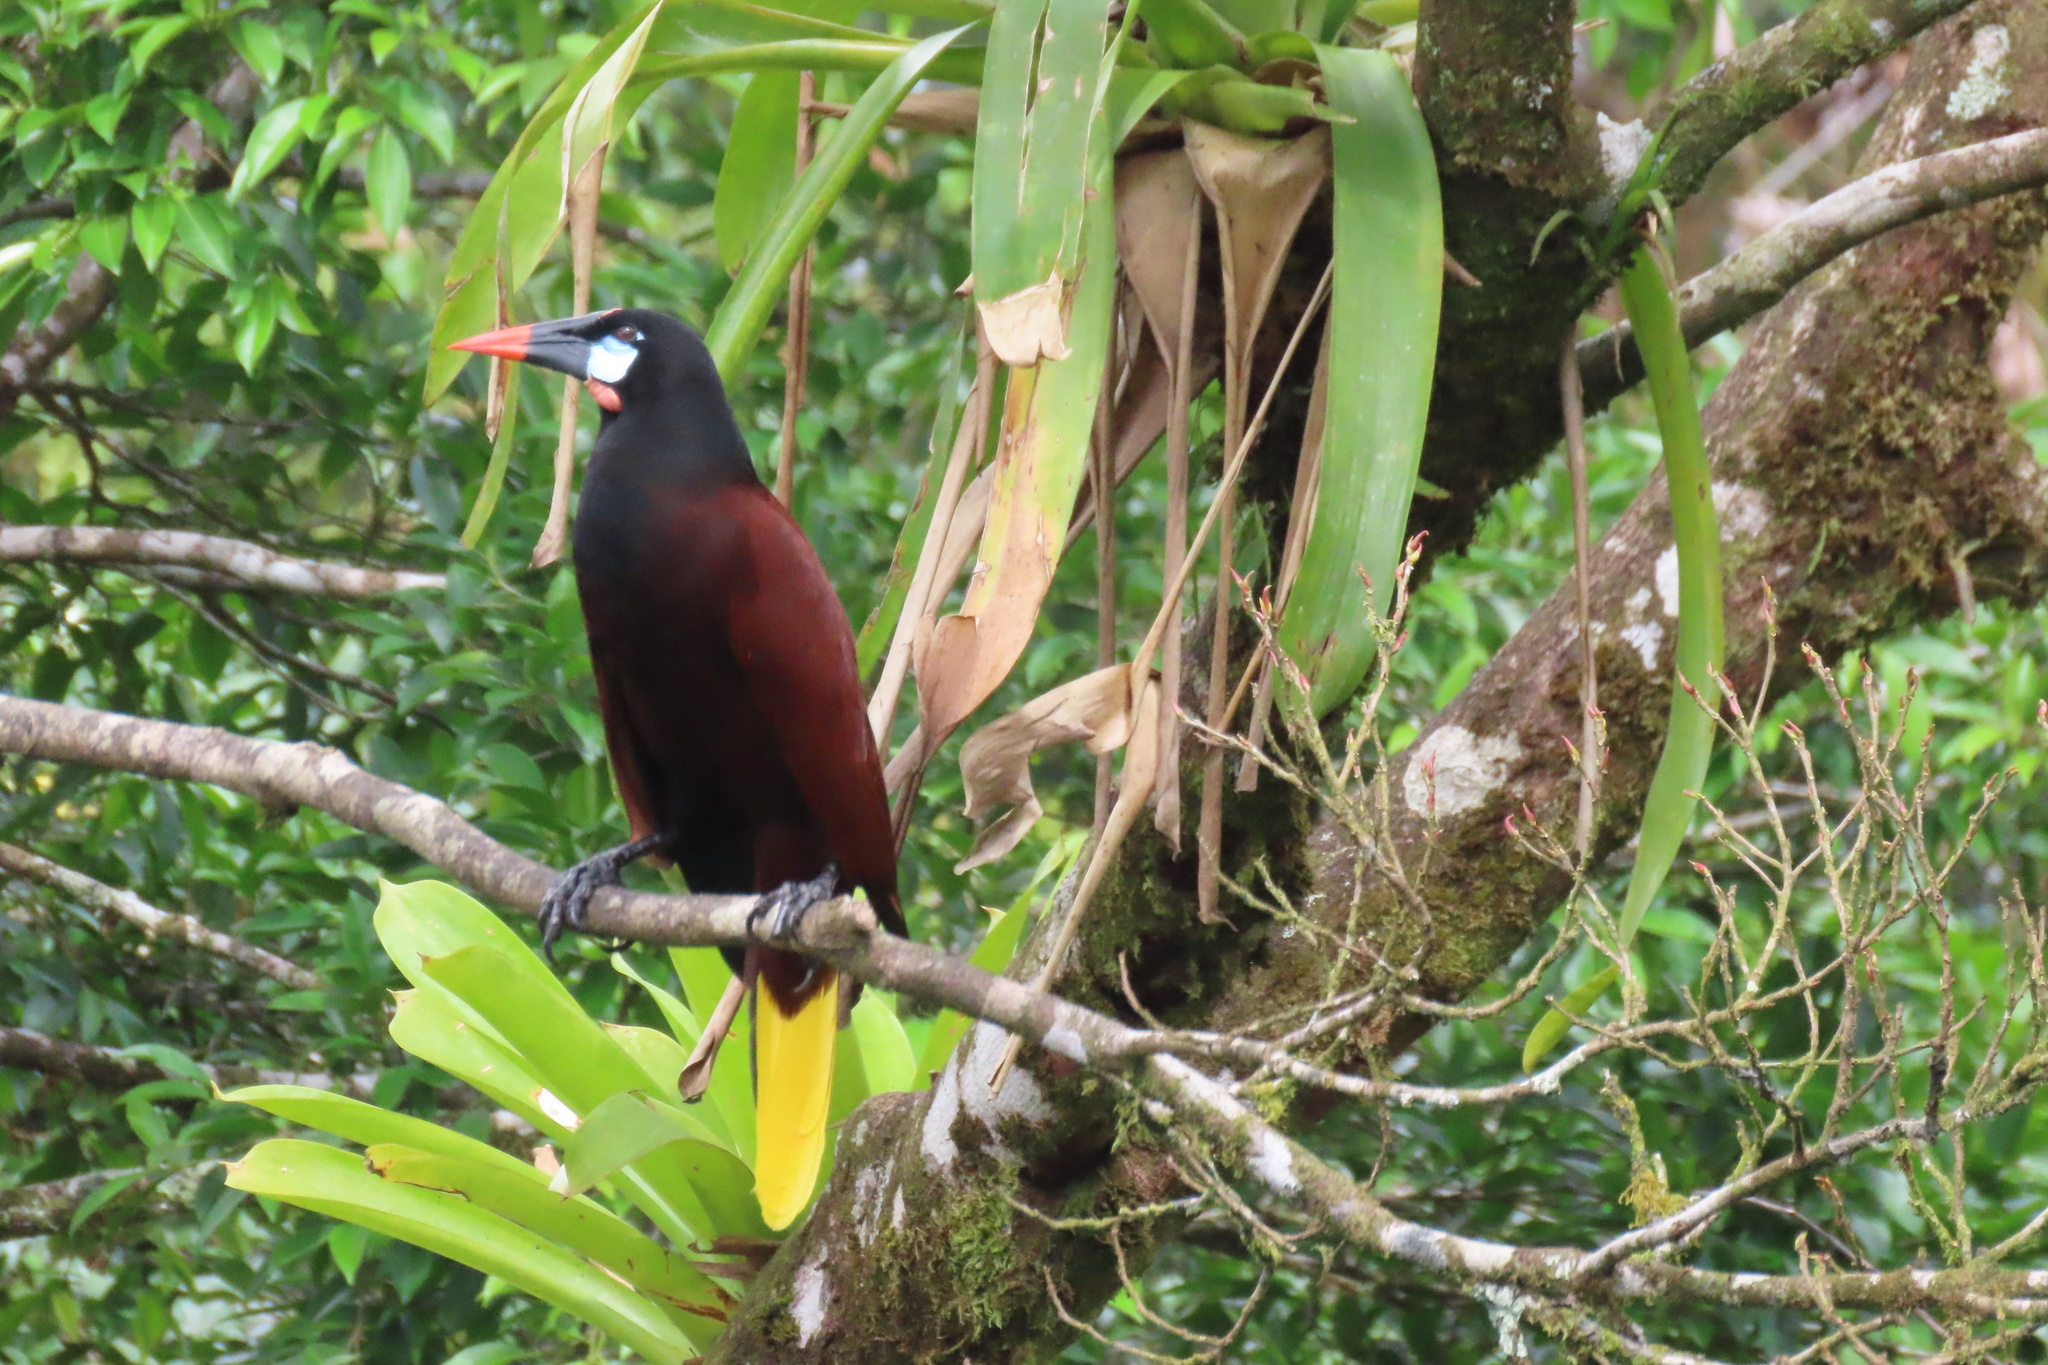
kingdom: Animalia
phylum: Chordata
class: Aves
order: Passeriformes
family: Icteridae
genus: Psarocolius
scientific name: Psarocolius montezuma
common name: Montezuma oropendola
